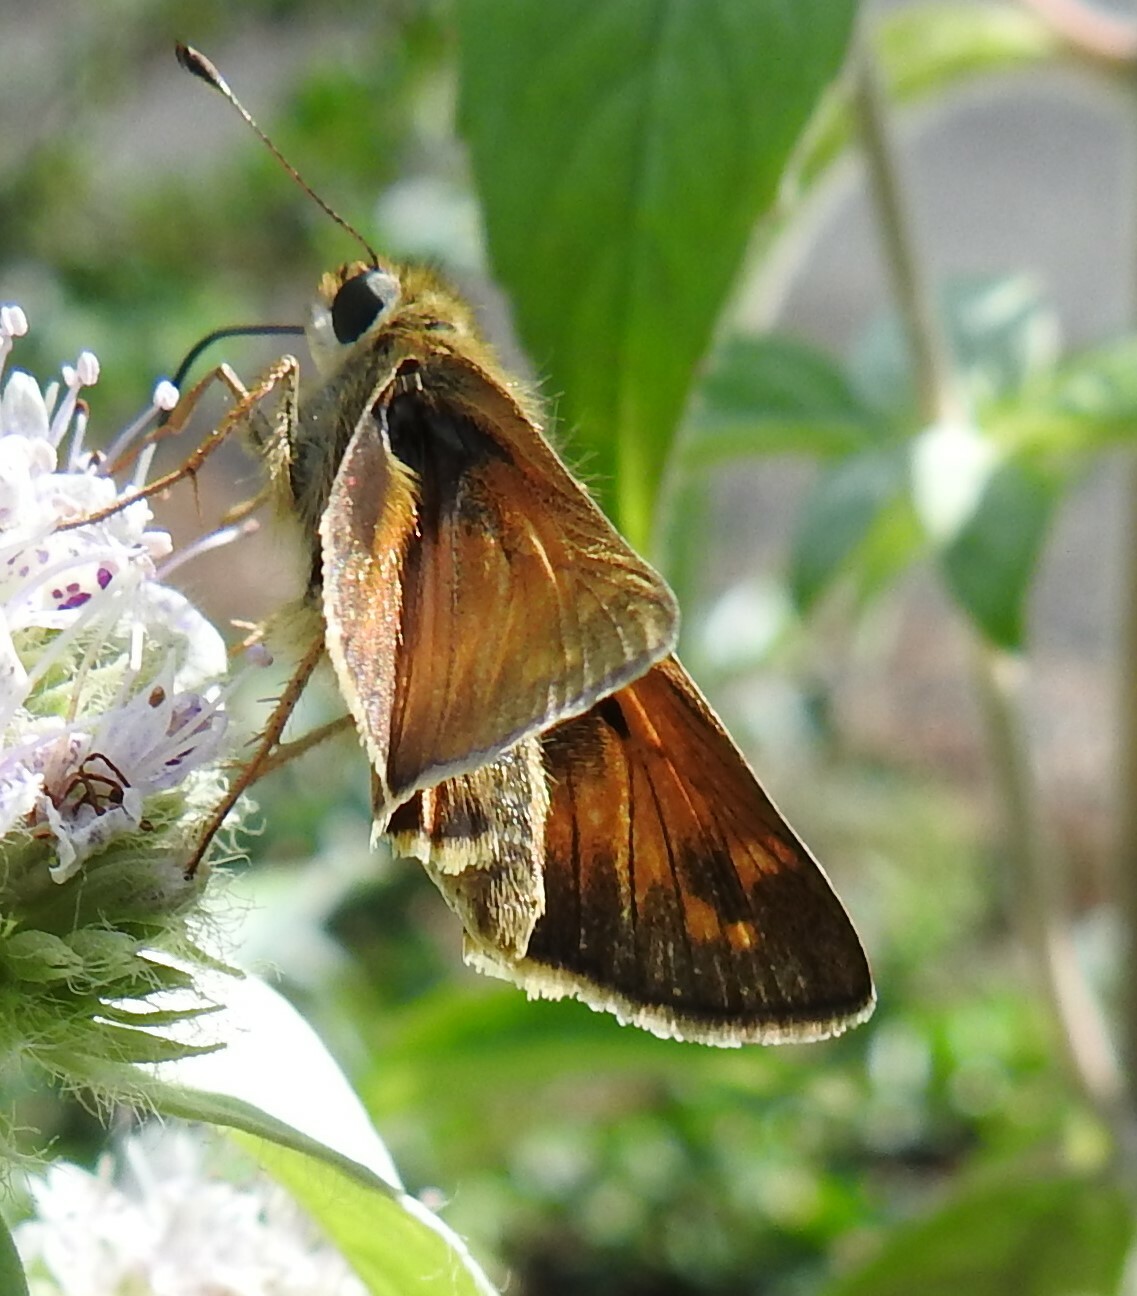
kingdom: Animalia
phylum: Arthropoda
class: Insecta
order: Lepidoptera
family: Hesperiidae
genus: Atalopedes
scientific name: Atalopedes
